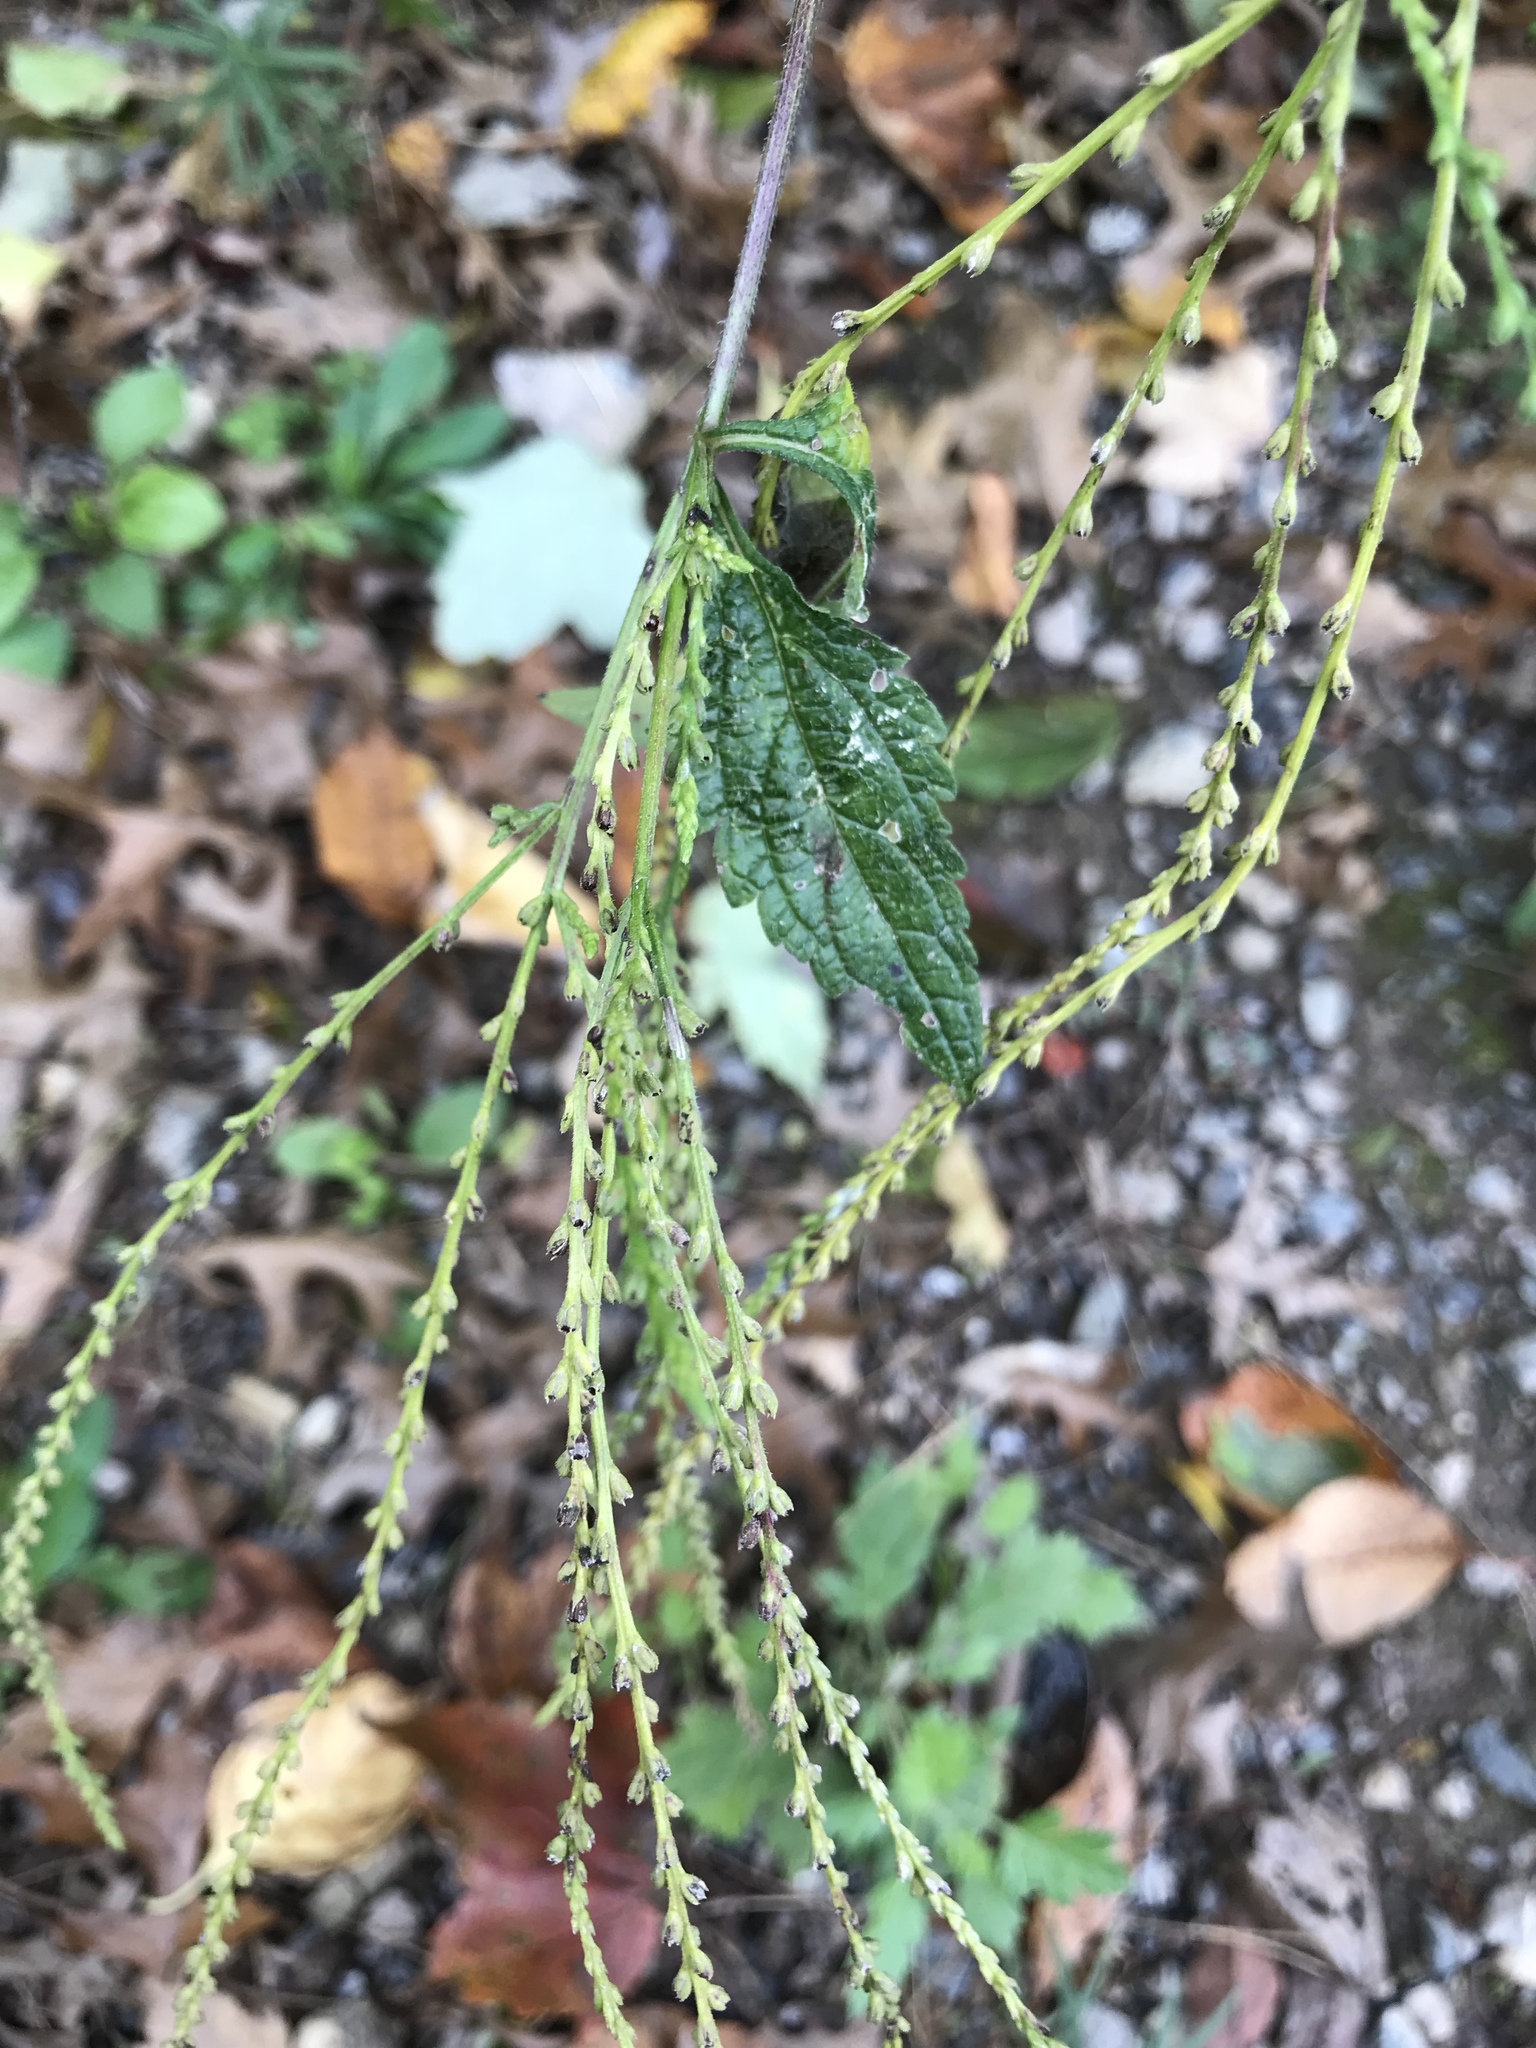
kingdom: Plantae
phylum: Tracheophyta
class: Magnoliopsida
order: Lamiales
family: Verbenaceae
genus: Verbena
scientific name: Verbena urticifolia
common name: Nettle-leaved vervain
